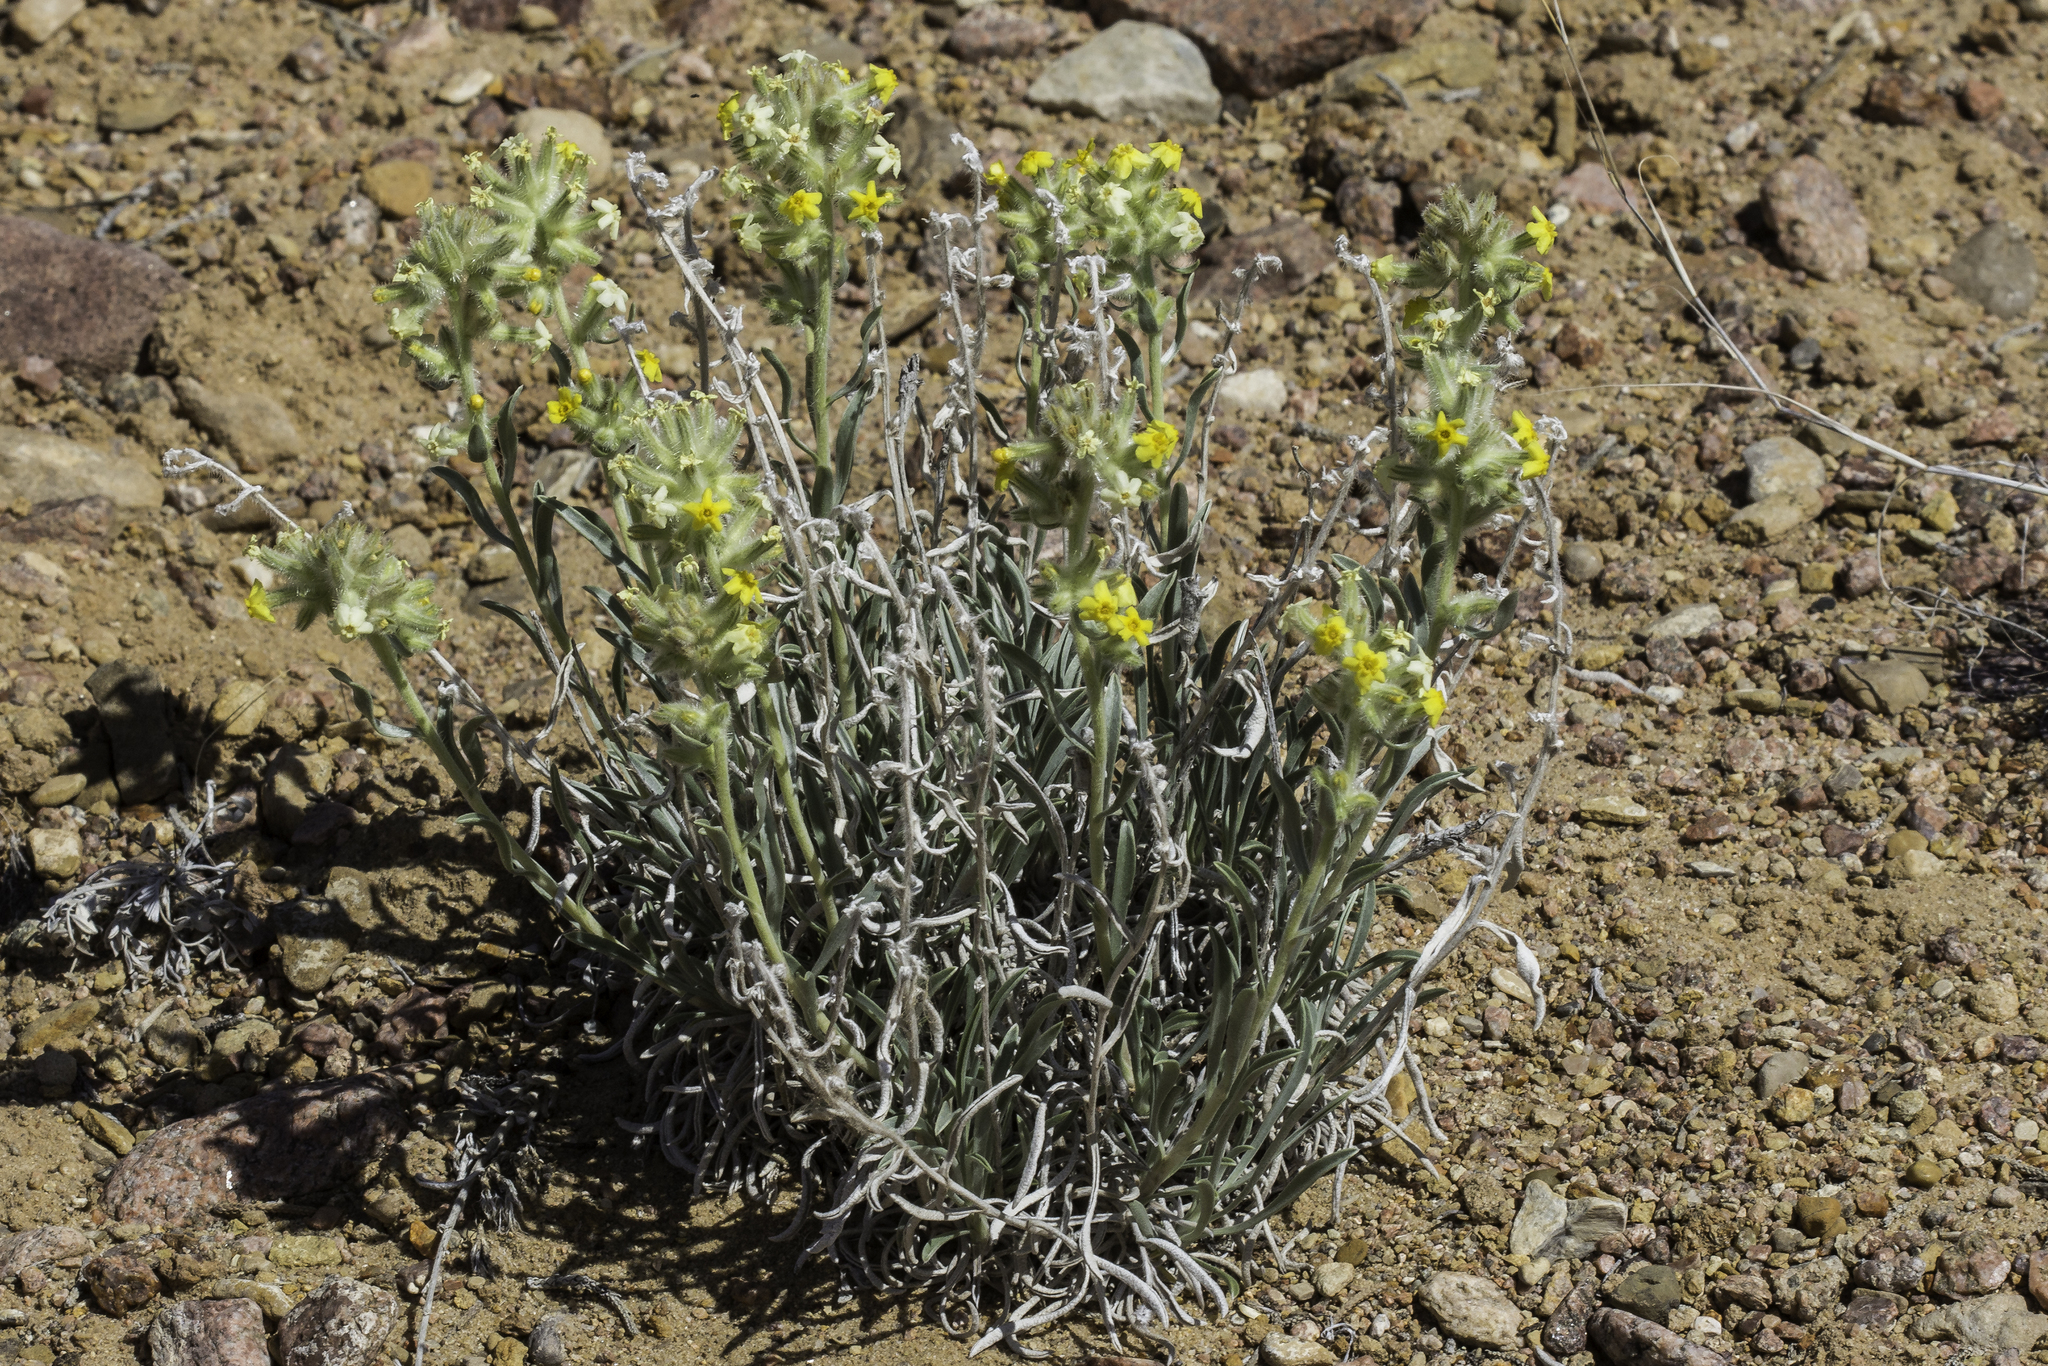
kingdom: Plantae
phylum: Tracheophyta
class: Magnoliopsida
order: Boraginales
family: Boraginaceae
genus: Oreocarya
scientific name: Oreocarya flava
